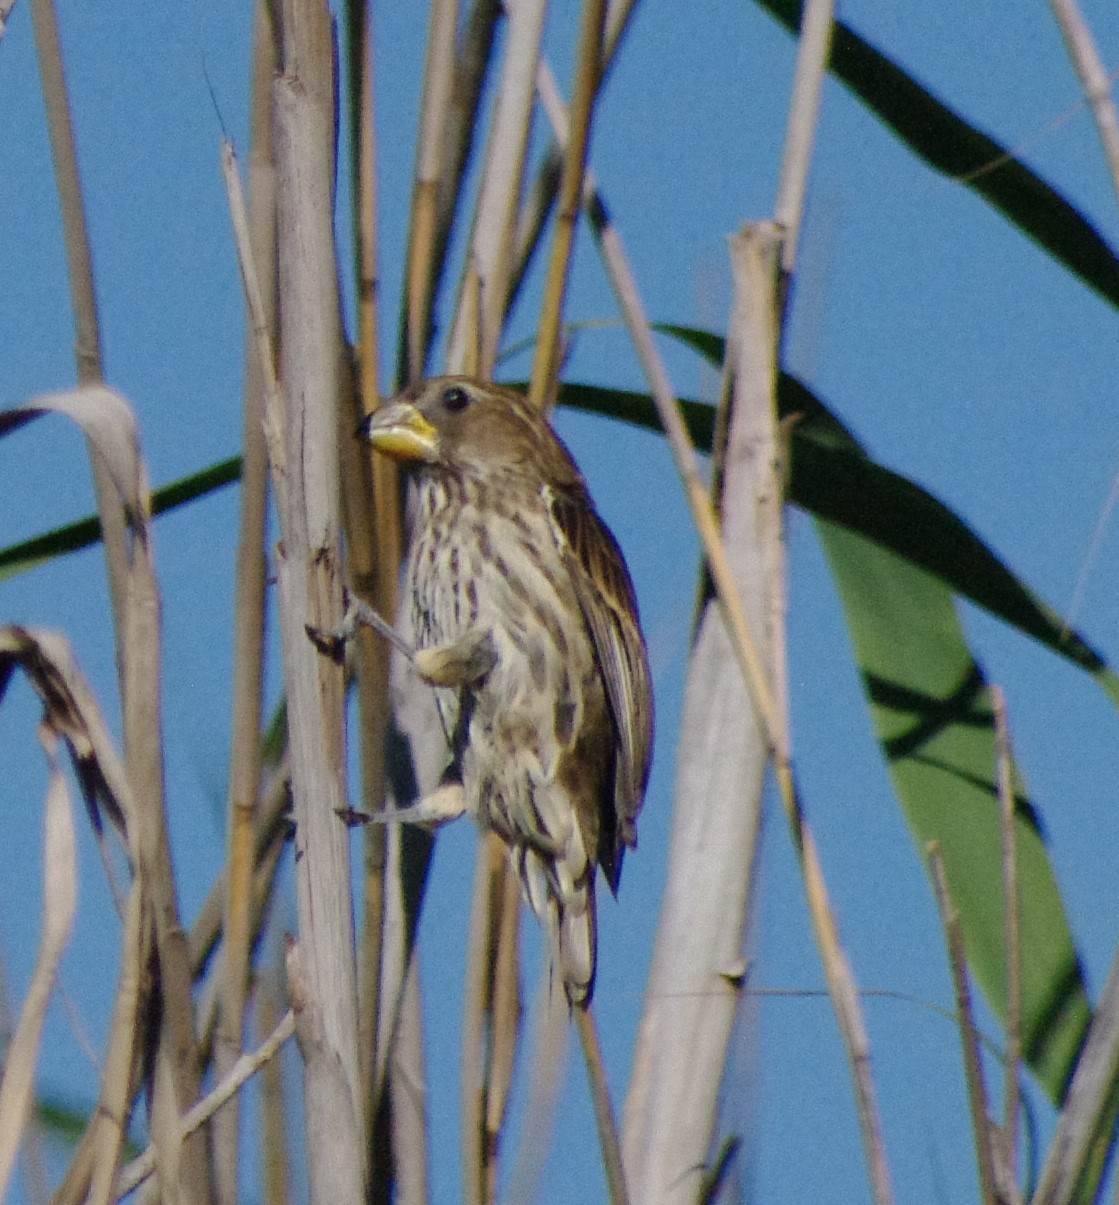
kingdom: Animalia
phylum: Chordata
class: Aves
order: Passeriformes
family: Ploceidae
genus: Amblyospiza
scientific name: Amblyospiza albifrons
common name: Thick-billed weaver
